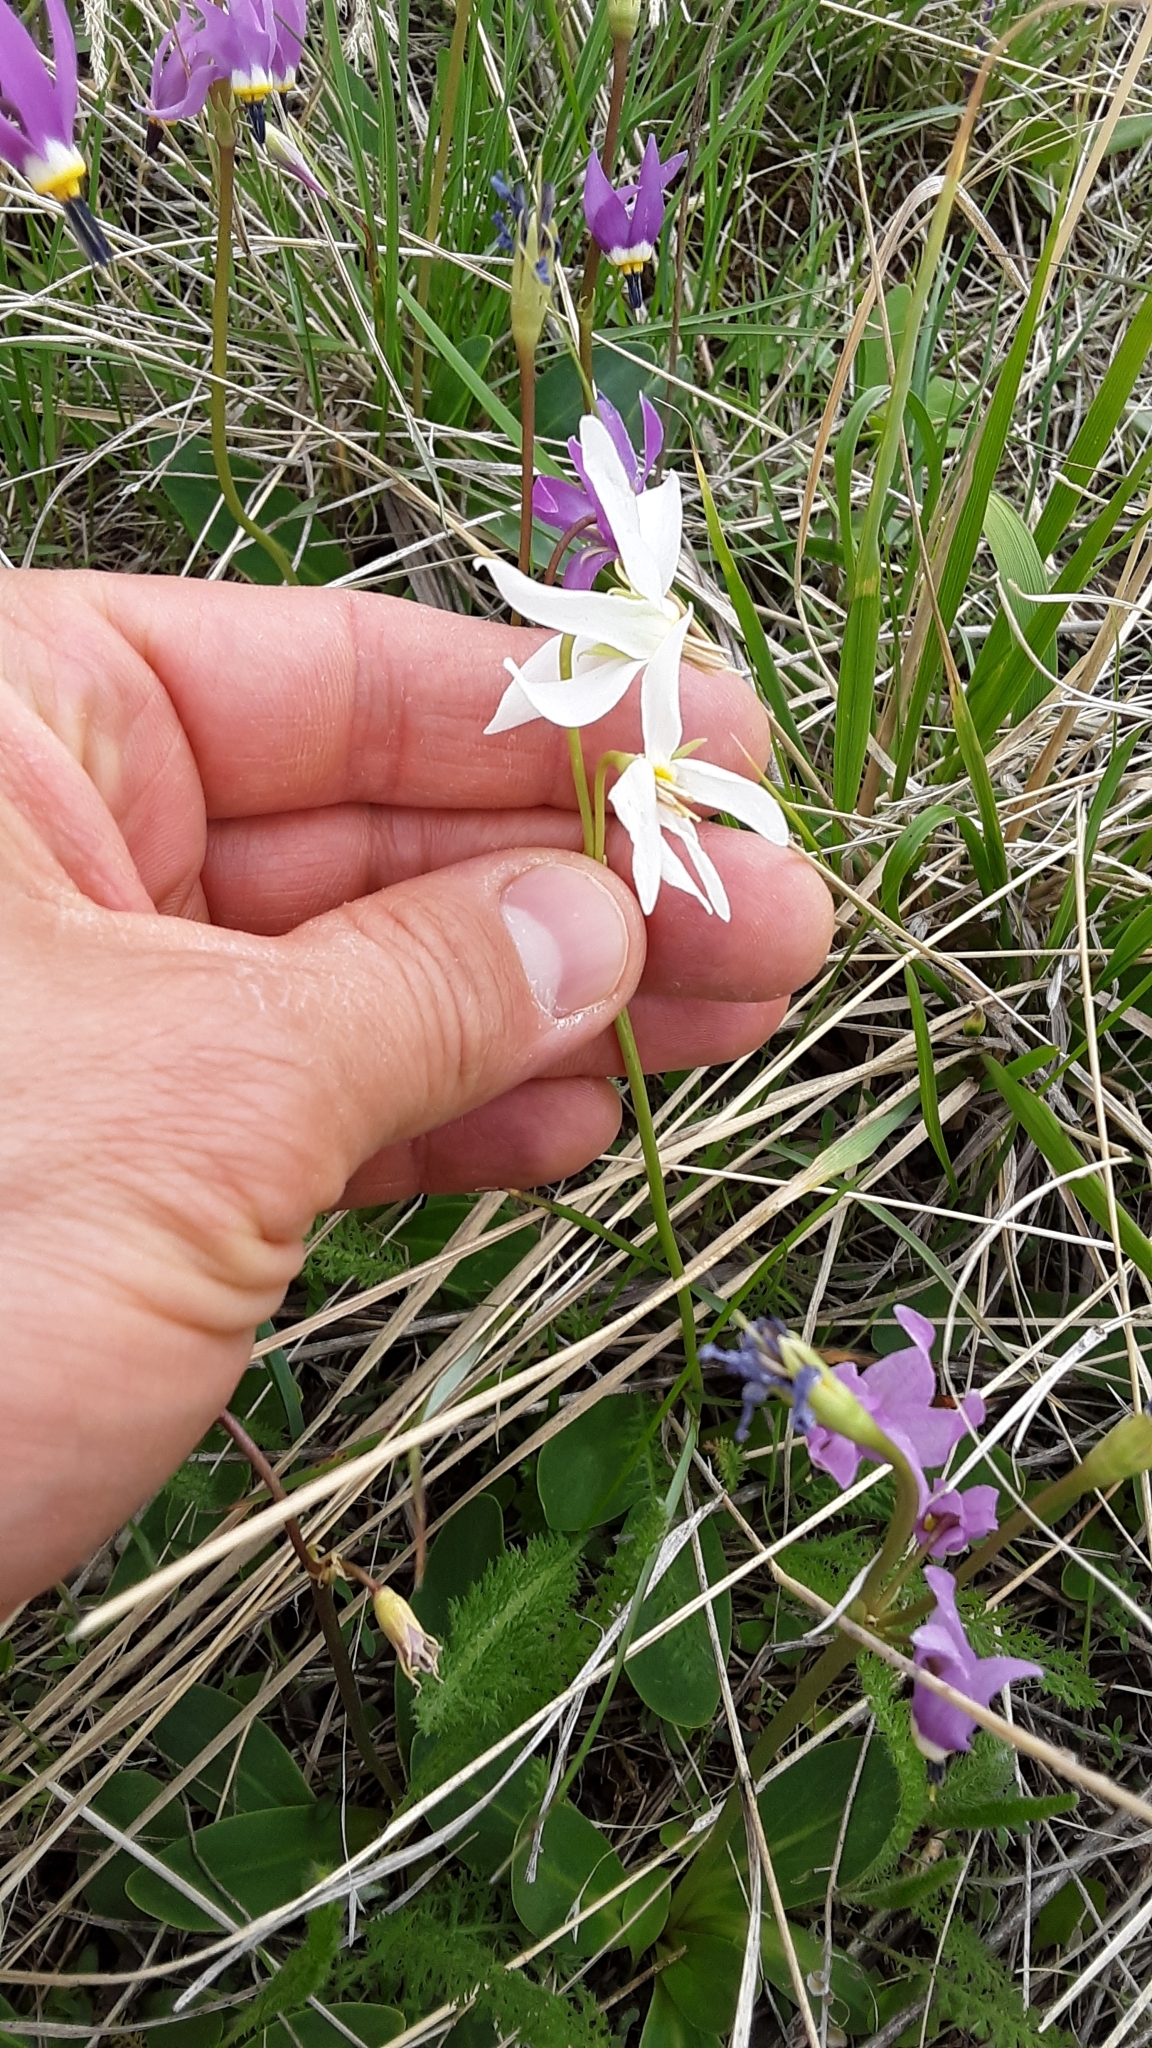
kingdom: Plantae
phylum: Tracheophyta
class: Magnoliopsida
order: Ericales
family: Primulaceae
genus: Dodecatheon
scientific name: Dodecatheon pulchellum
